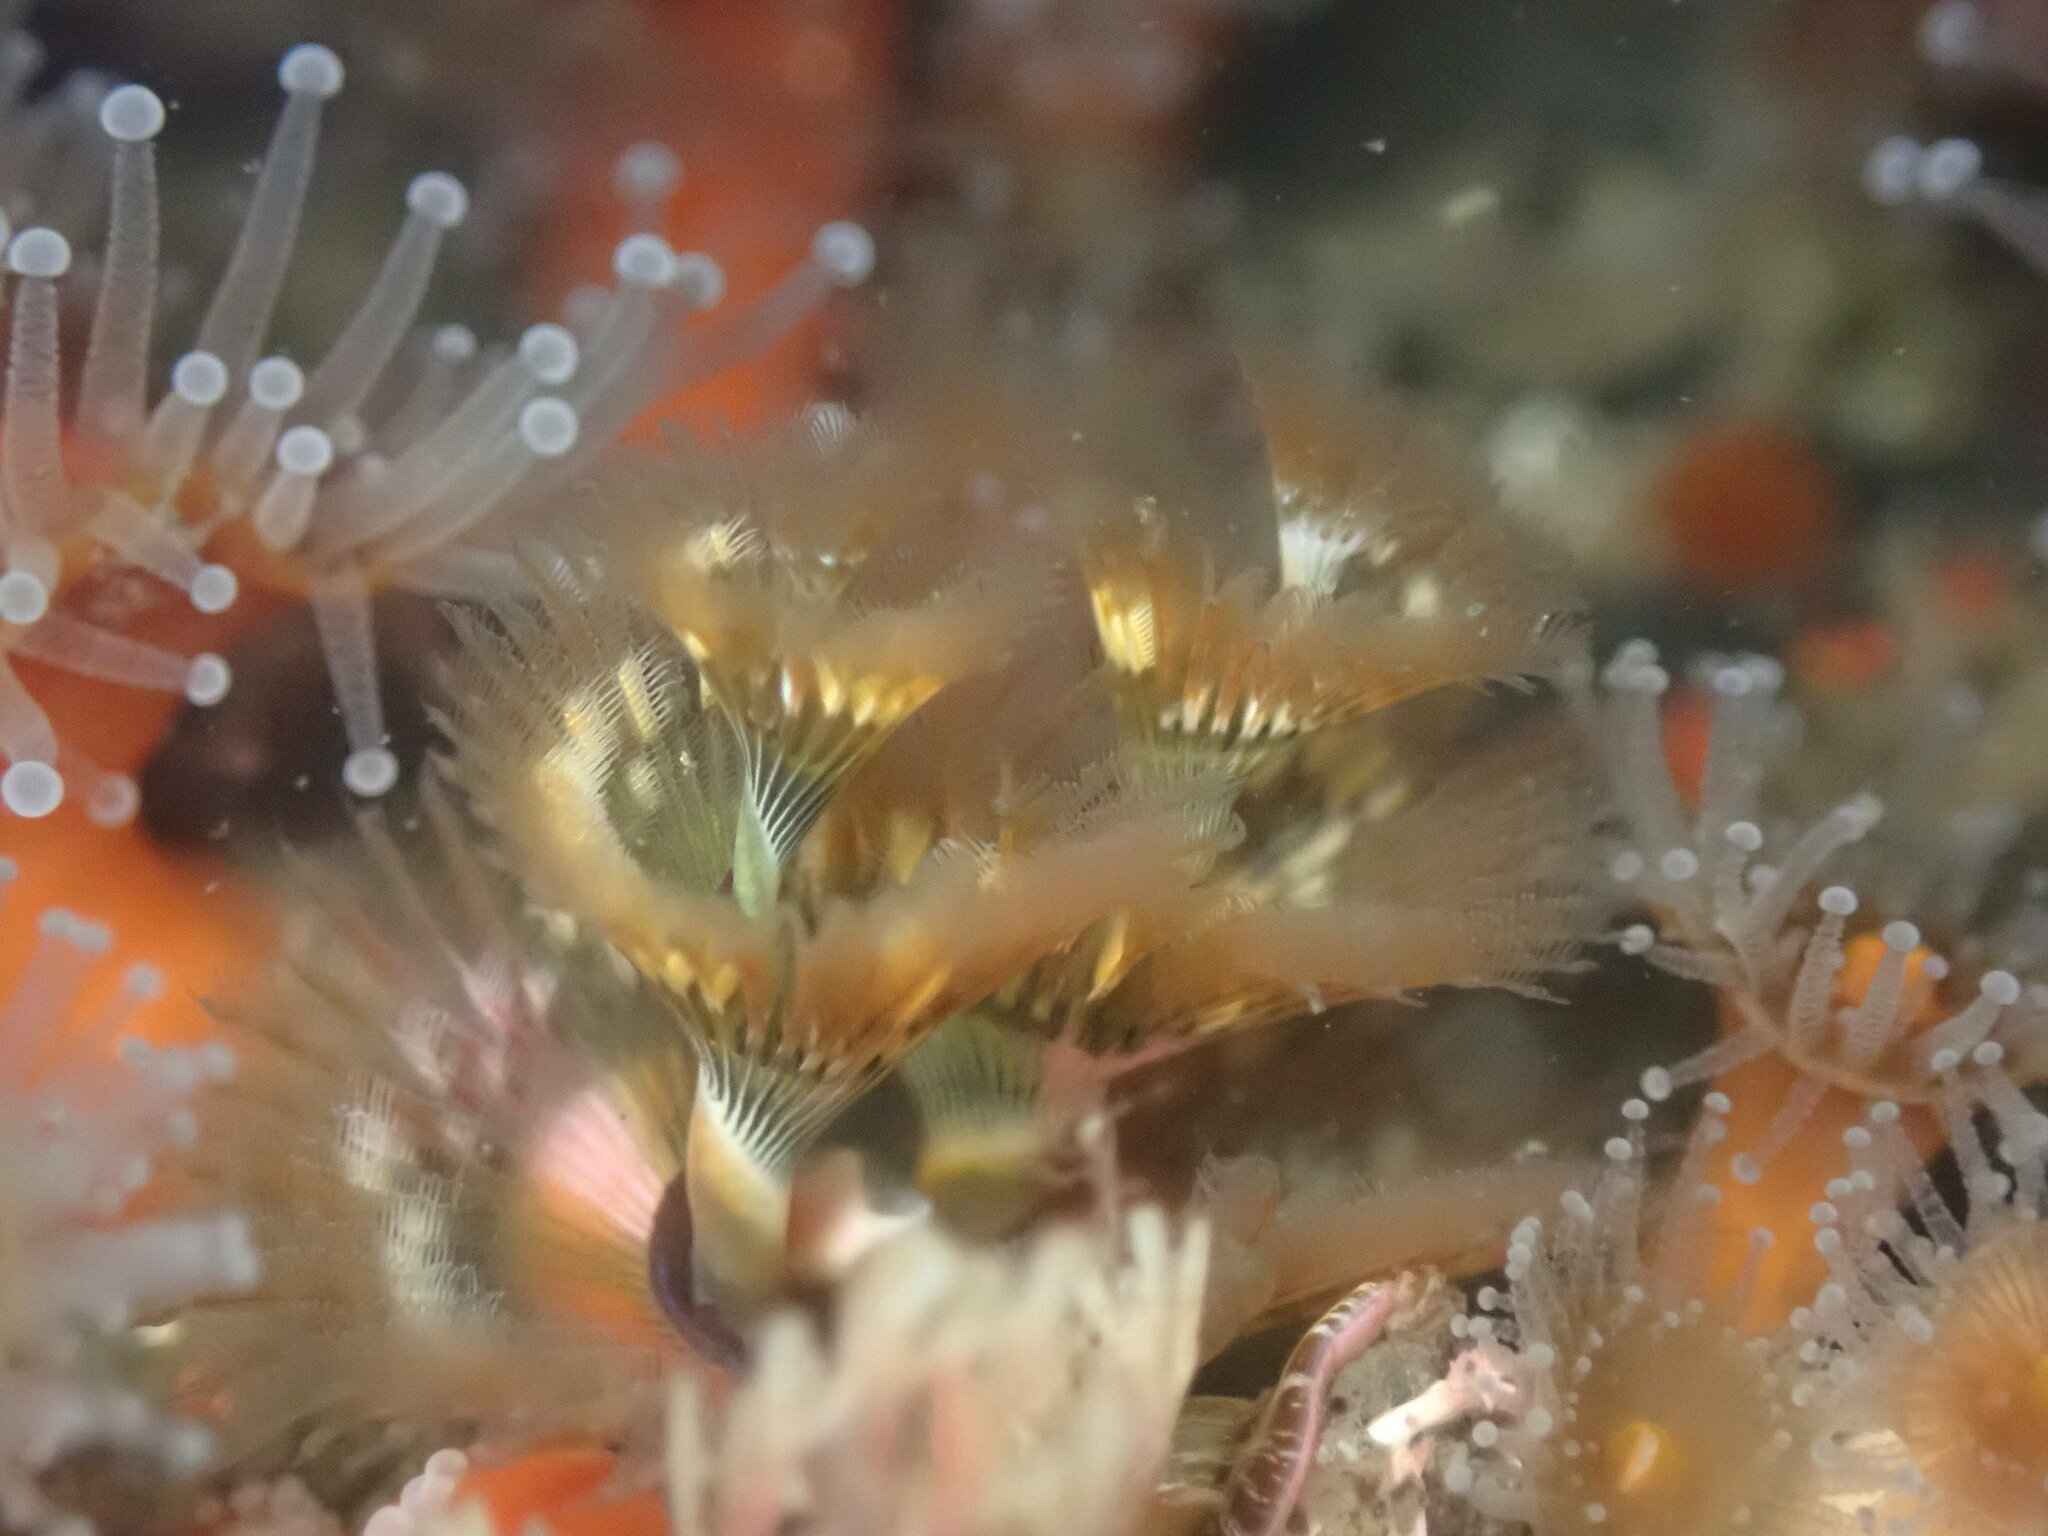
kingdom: Animalia
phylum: Annelida
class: Polychaeta
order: Sabellida
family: Serpulidae
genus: Spirobranchus
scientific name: Spirobranchus spinosus
